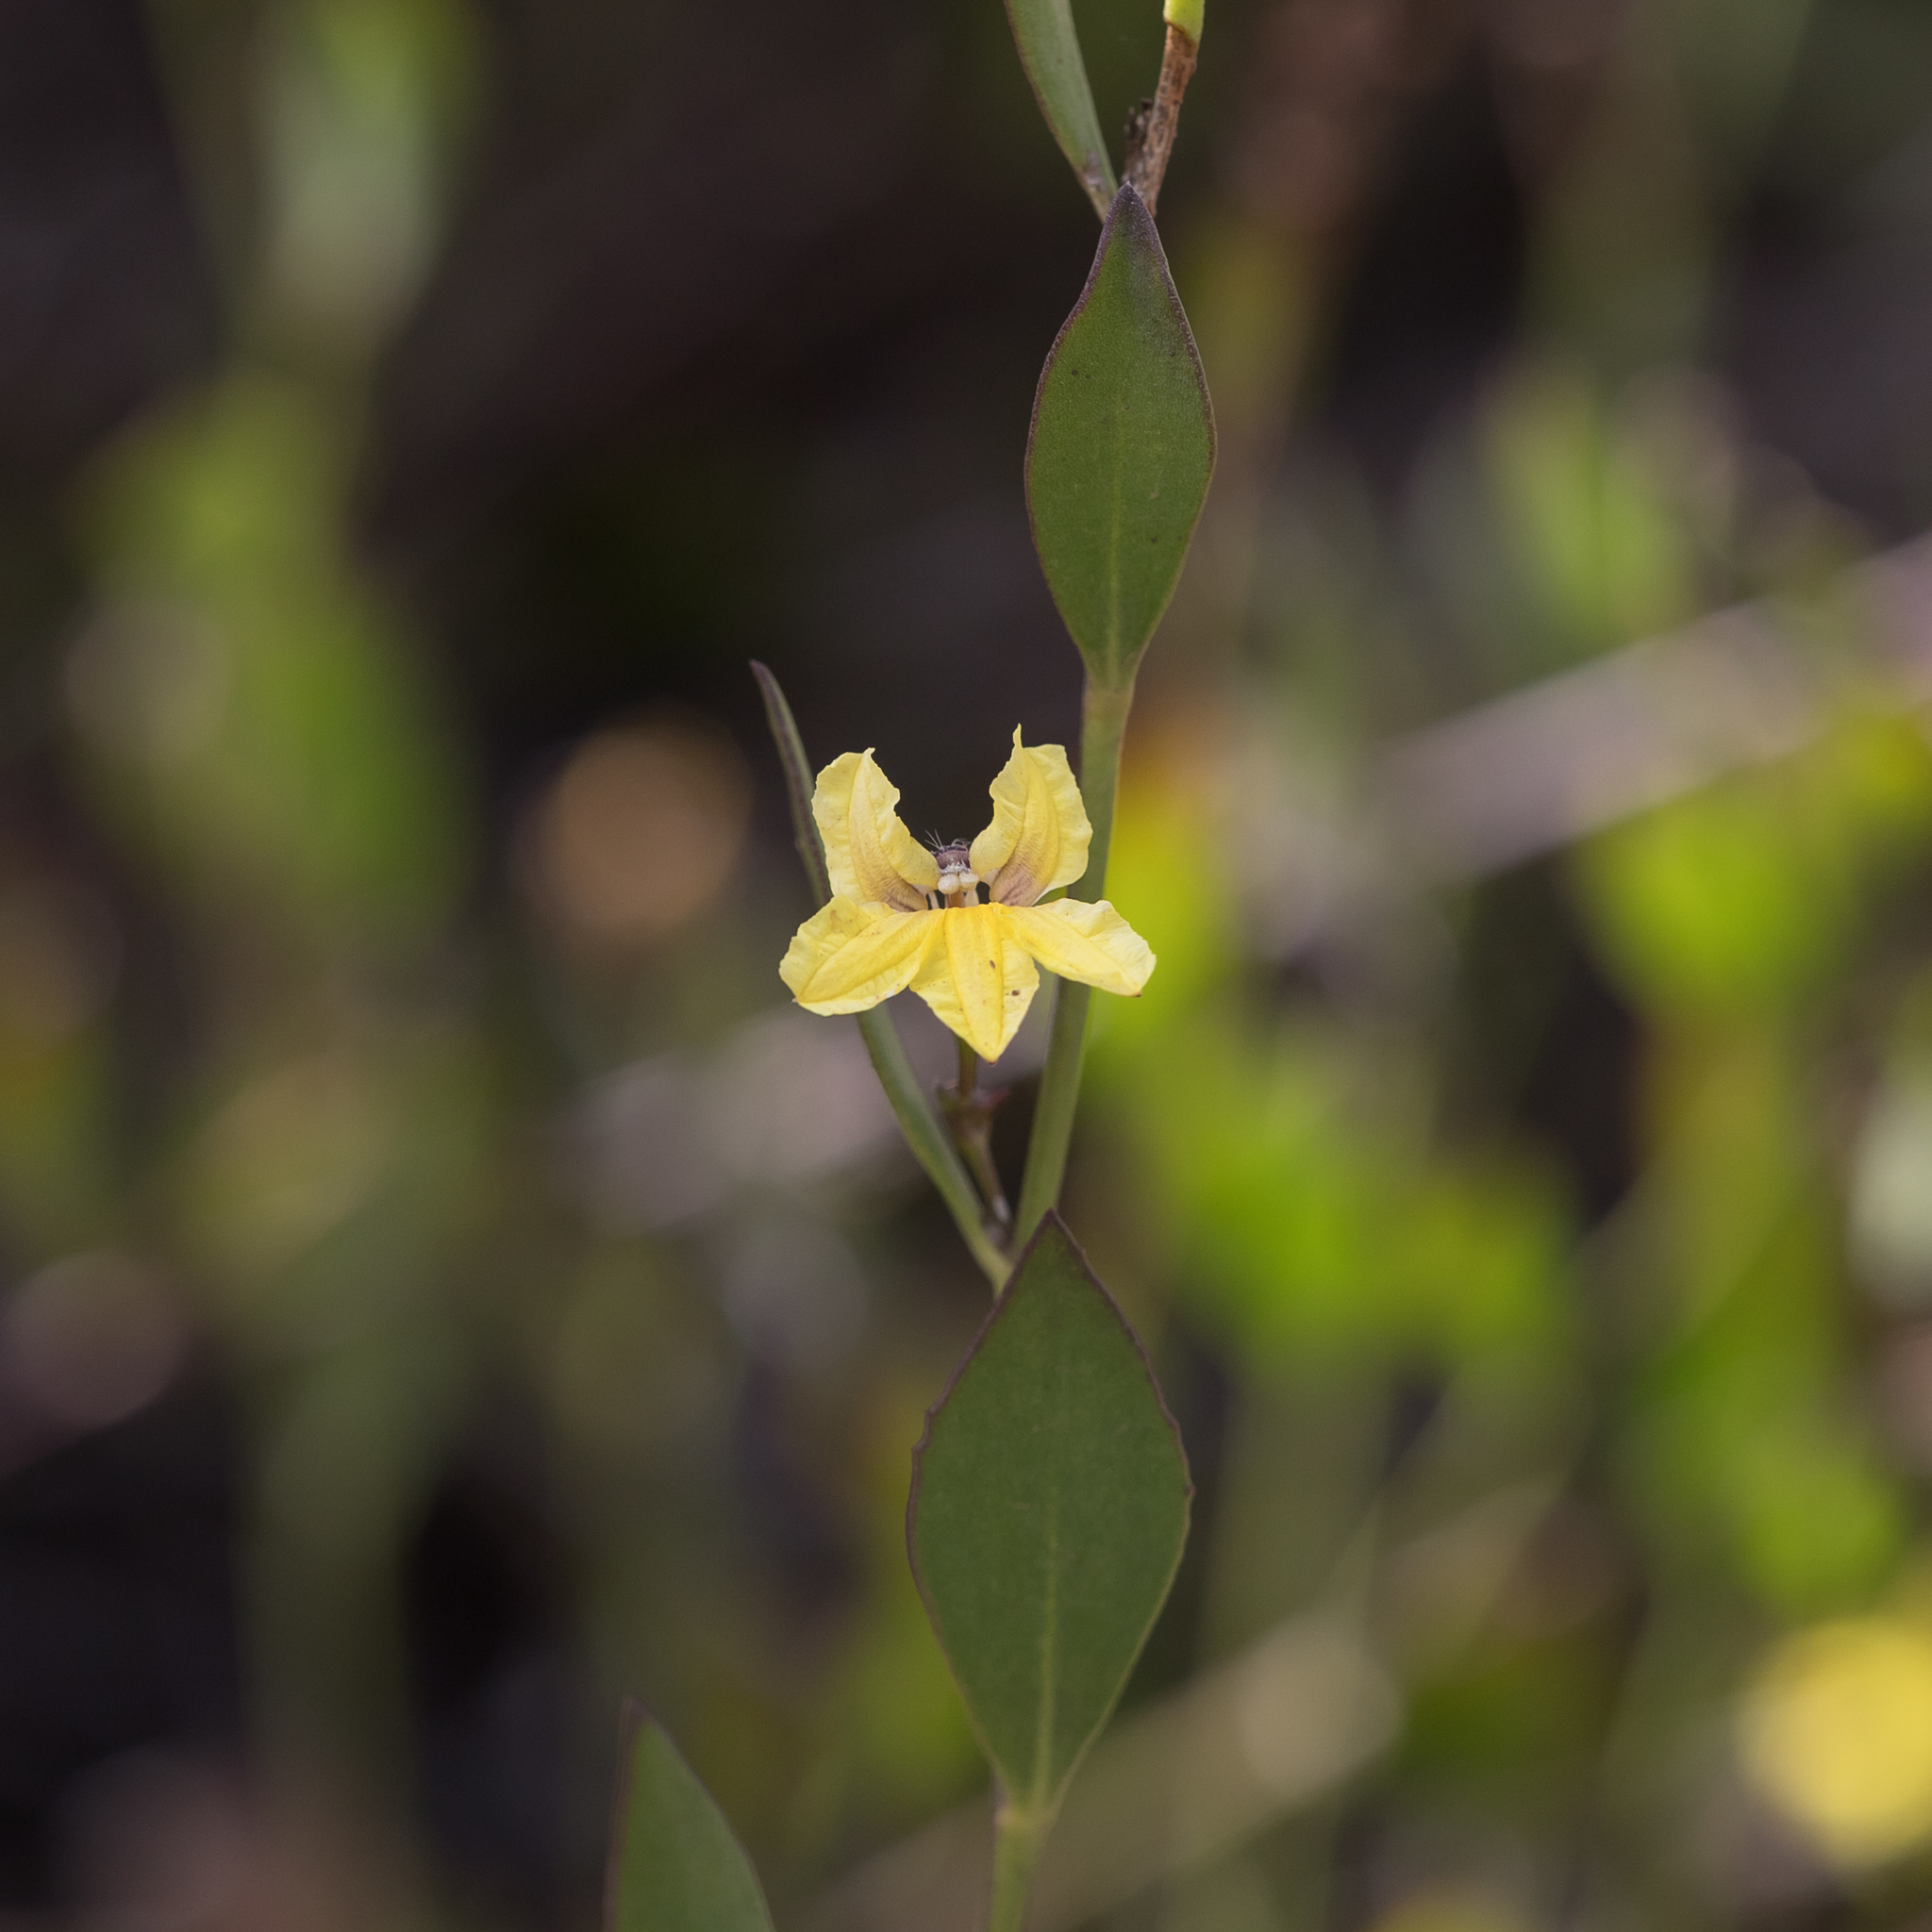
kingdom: Plantae
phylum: Tracheophyta
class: Magnoliopsida
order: Asterales
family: Goodeniaceae
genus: Goodenia
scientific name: Goodenia varia
